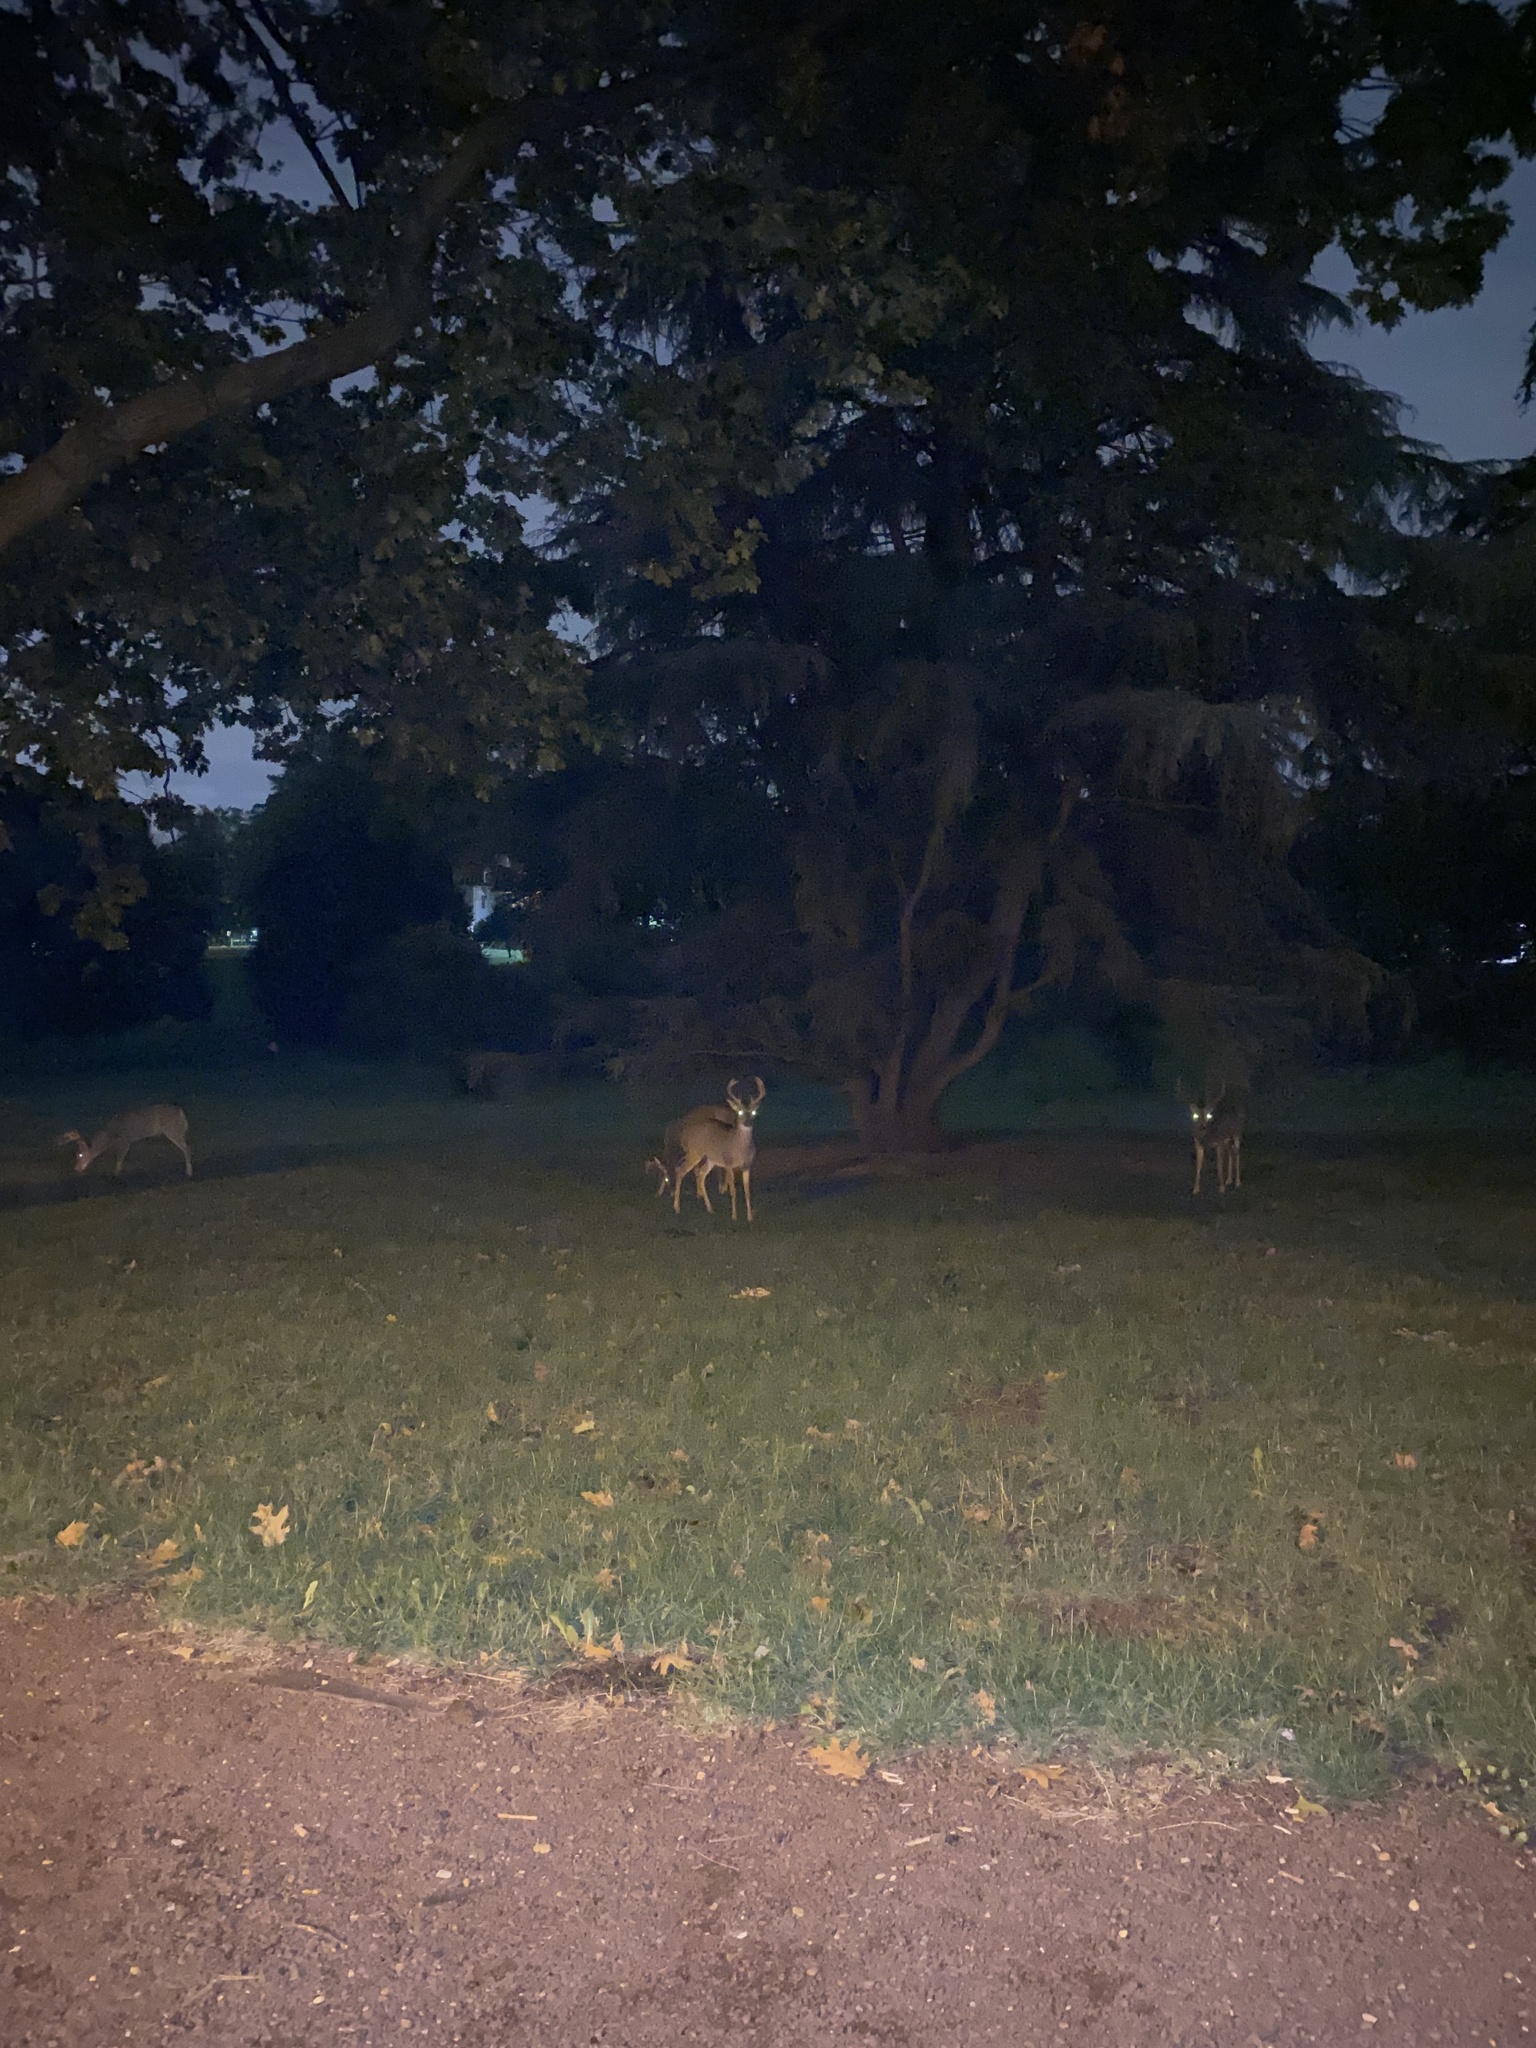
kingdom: Animalia
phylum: Chordata
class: Mammalia
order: Artiodactyla
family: Cervidae
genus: Odocoileus
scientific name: Odocoileus virginianus
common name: White-tailed deer
